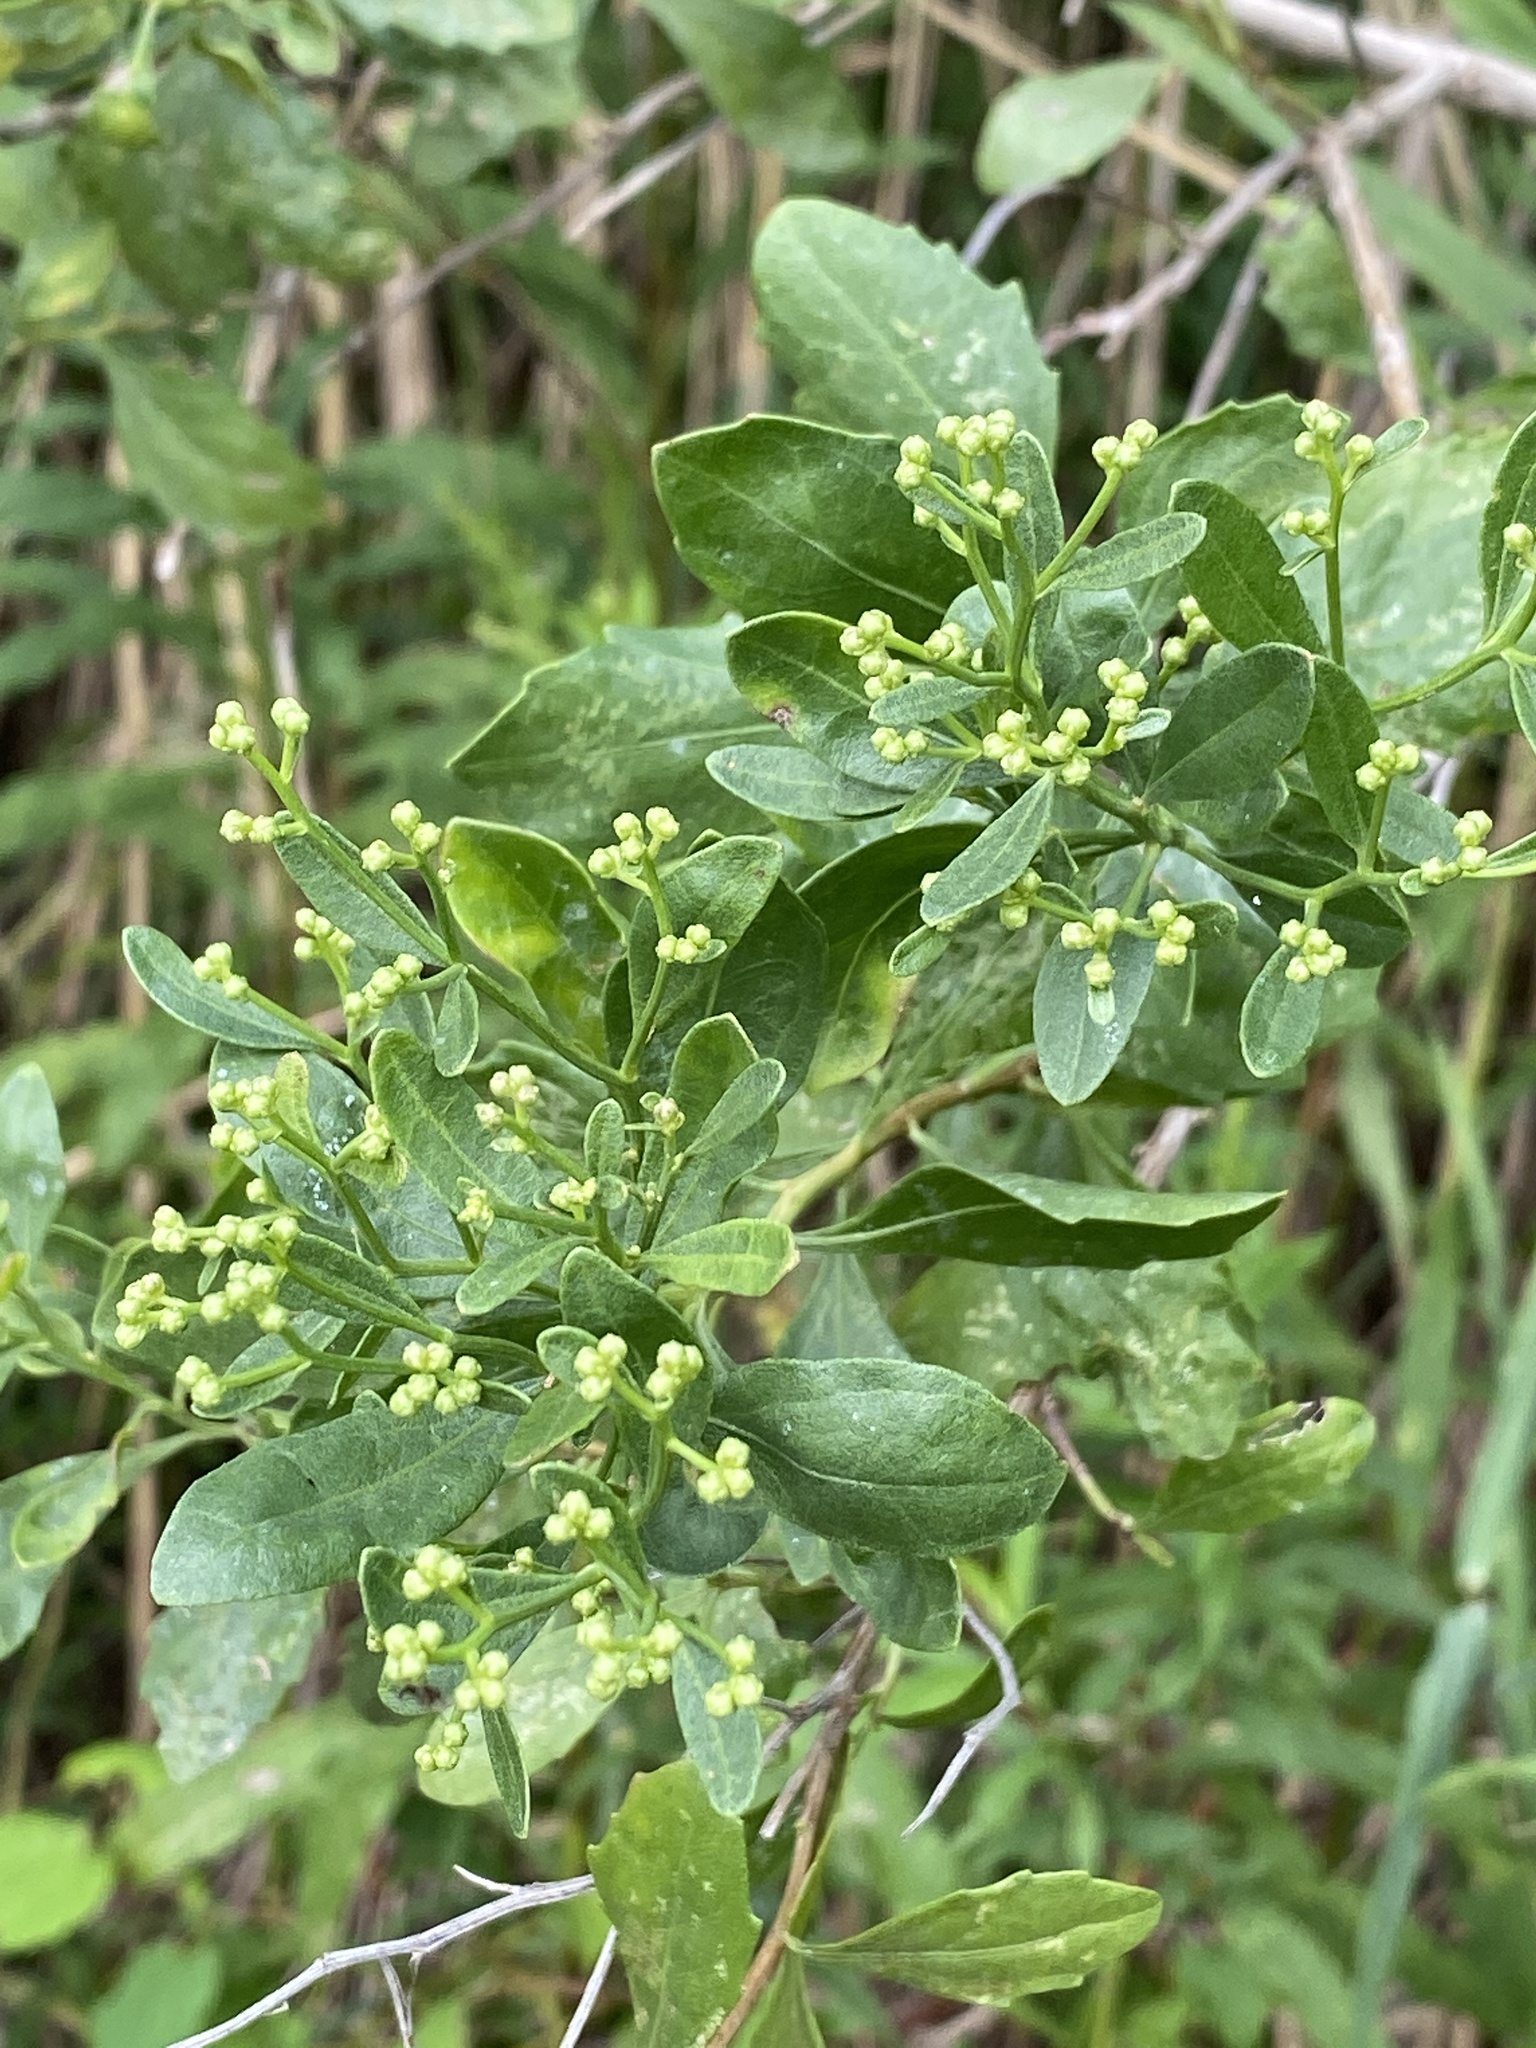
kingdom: Plantae
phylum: Tracheophyta
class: Magnoliopsida
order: Asterales
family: Asteraceae
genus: Baccharis
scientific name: Baccharis halimifolia
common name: Eastern baccharis
